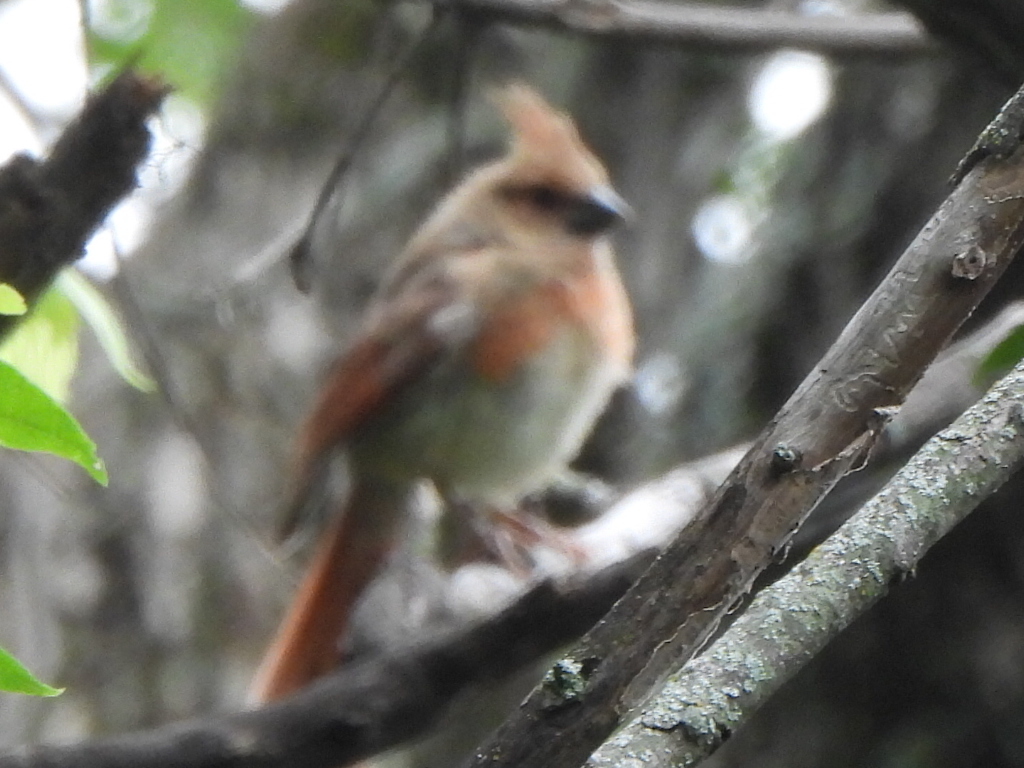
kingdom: Animalia
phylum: Chordata
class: Aves
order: Passeriformes
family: Cardinalidae
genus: Cardinalis
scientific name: Cardinalis cardinalis
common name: Northern cardinal
